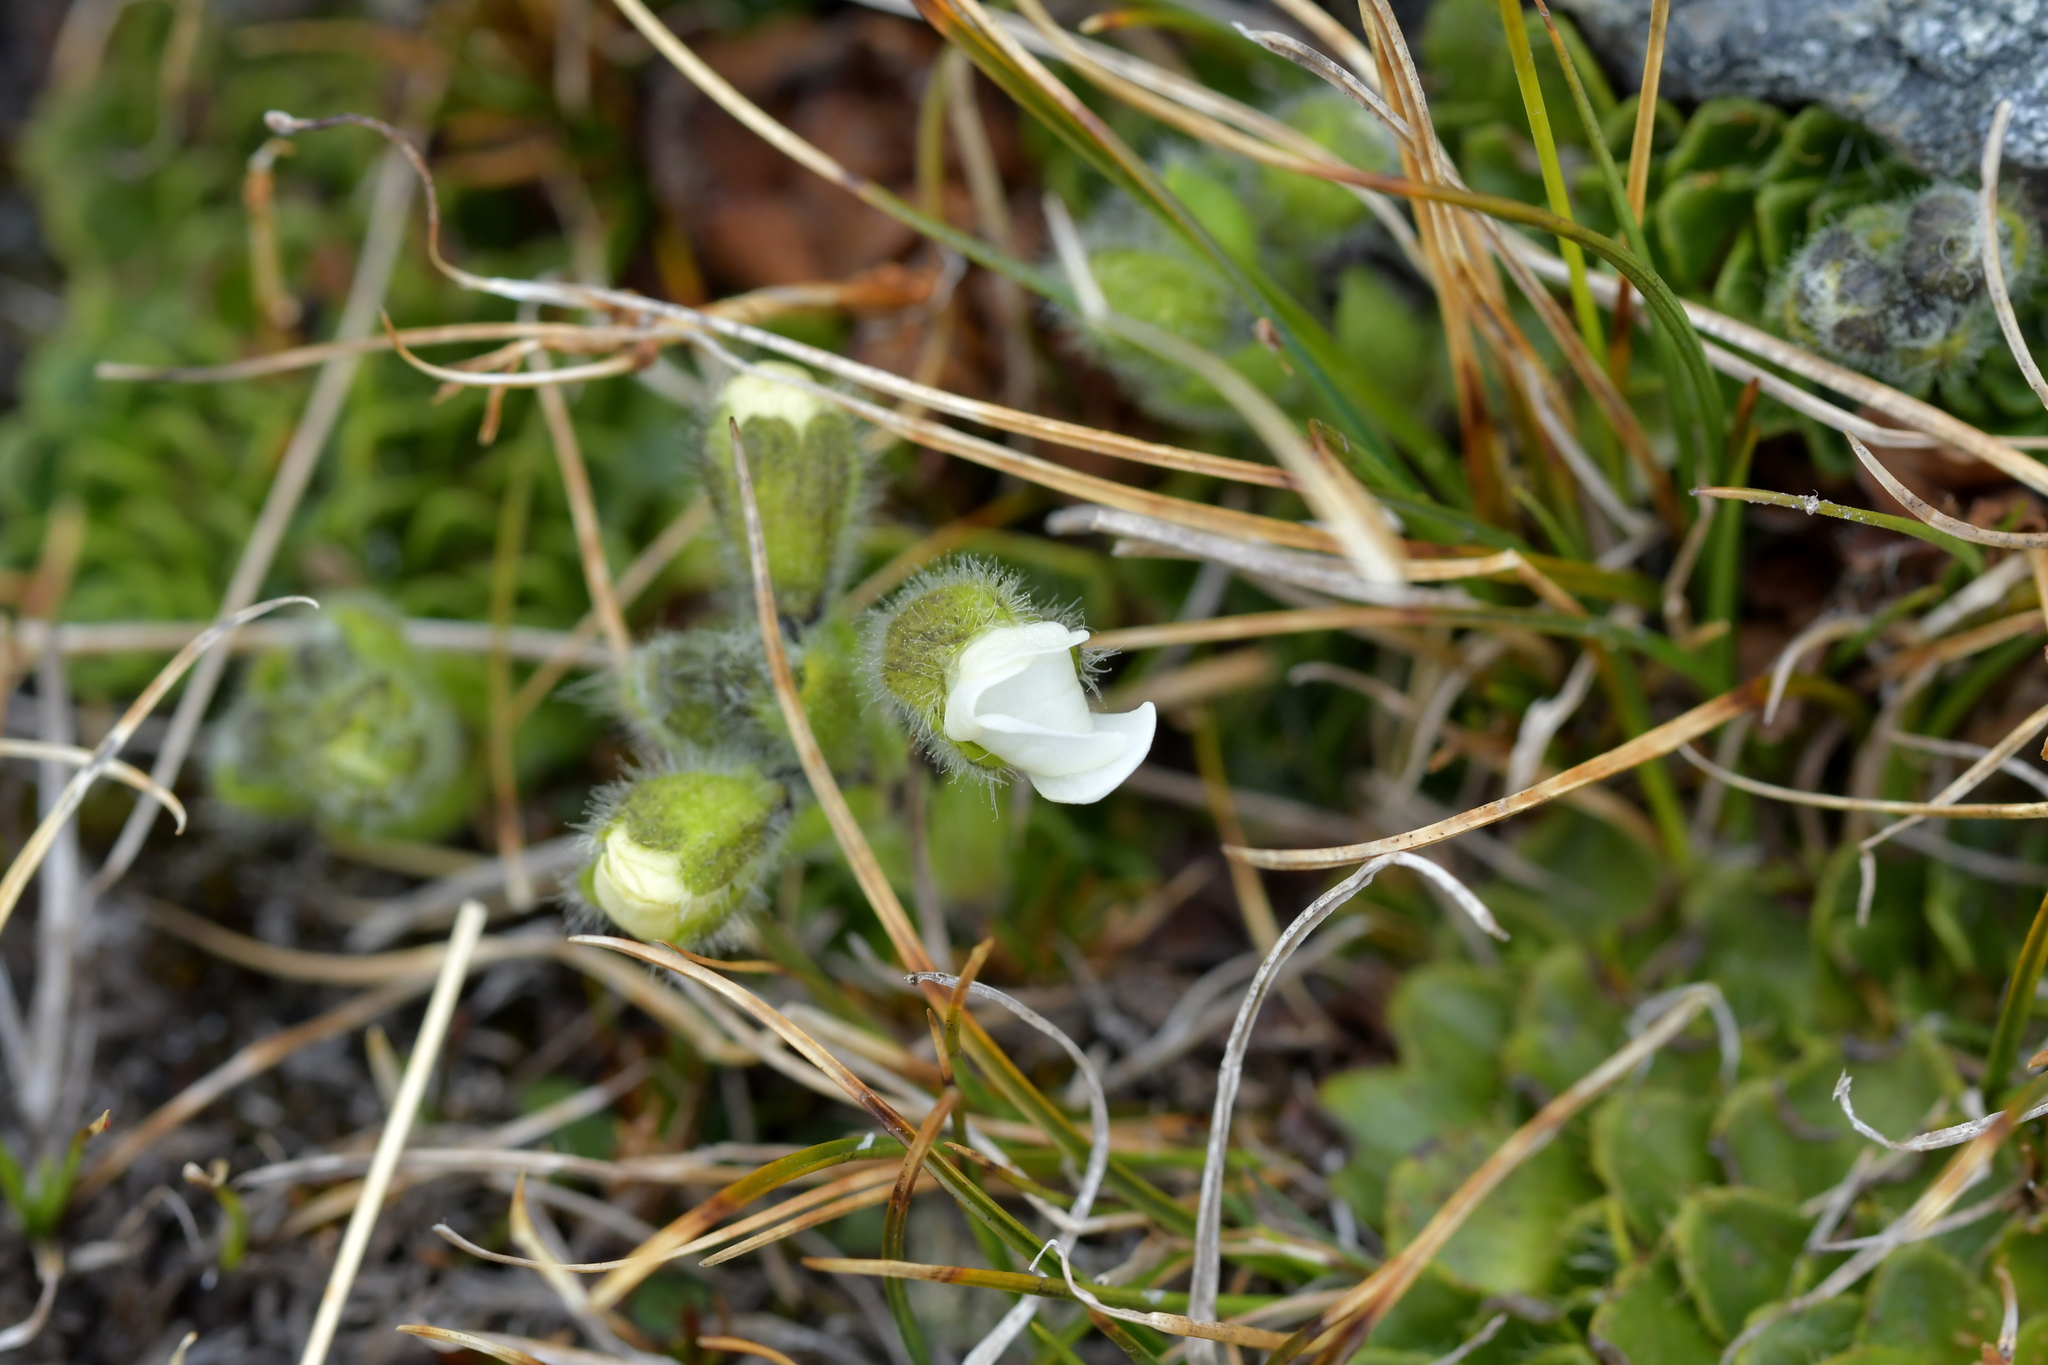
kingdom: Plantae
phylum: Tracheophyta
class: Magnoliopsida
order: Lamiales
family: Plantaginaceae
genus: Ourisia
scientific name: Ourisia glandulosa
